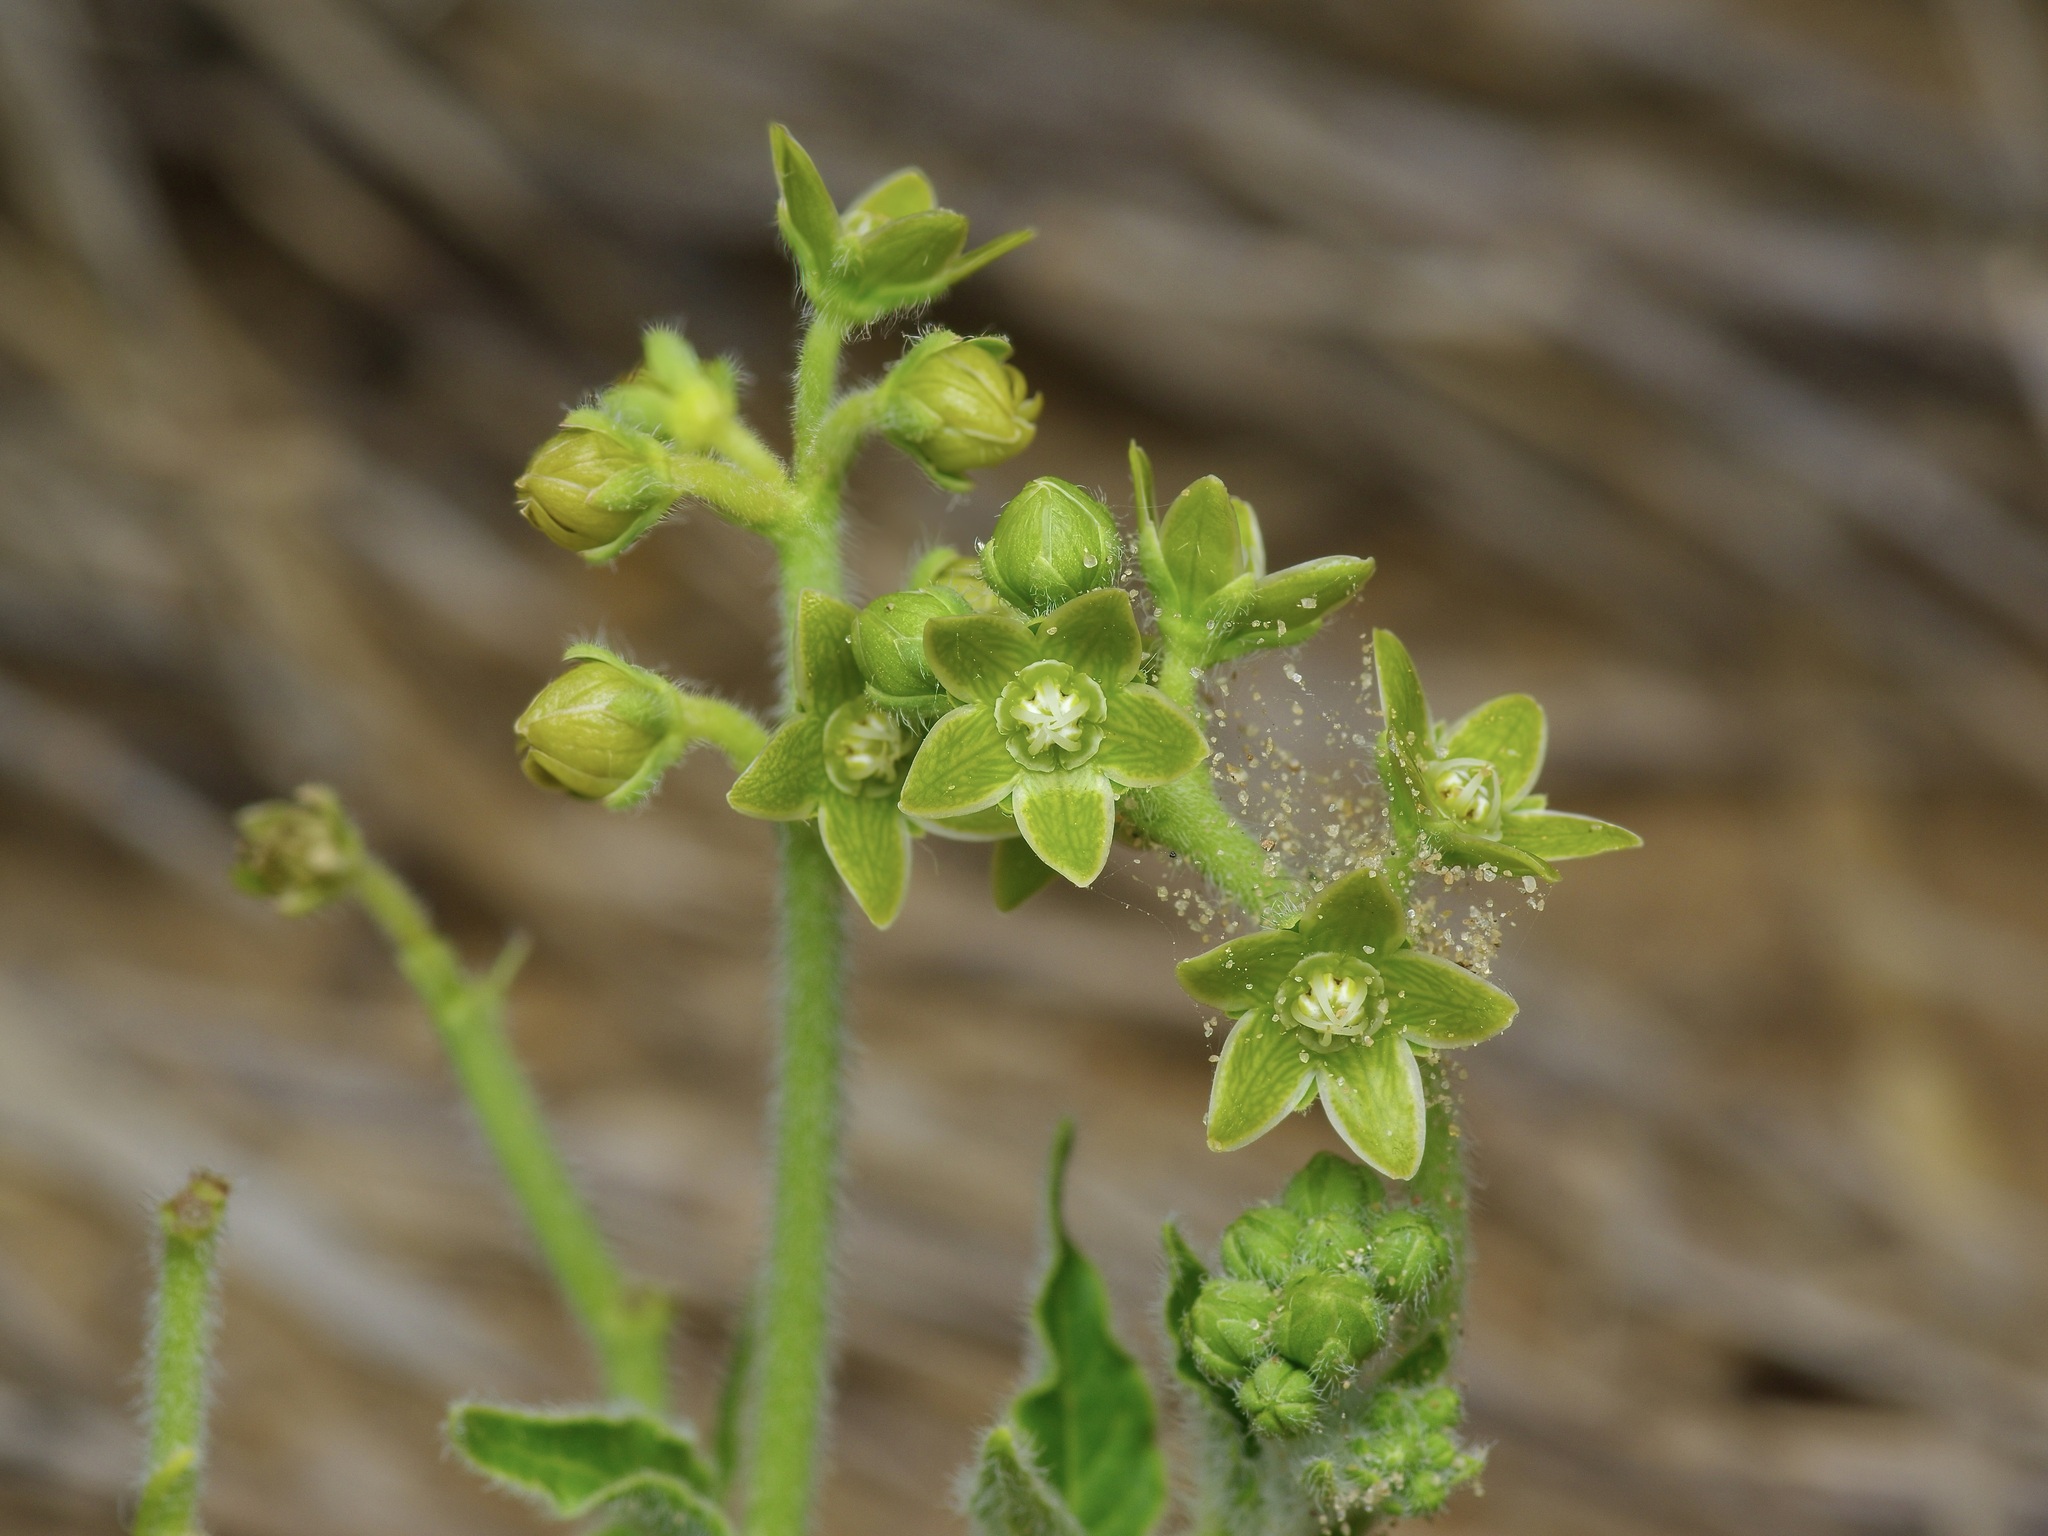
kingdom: Plantae
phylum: Tracheophyta
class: Magnoliopsida
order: Gentianales
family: Apocynaceae
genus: Matelea
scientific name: Matelea brevicoronata
